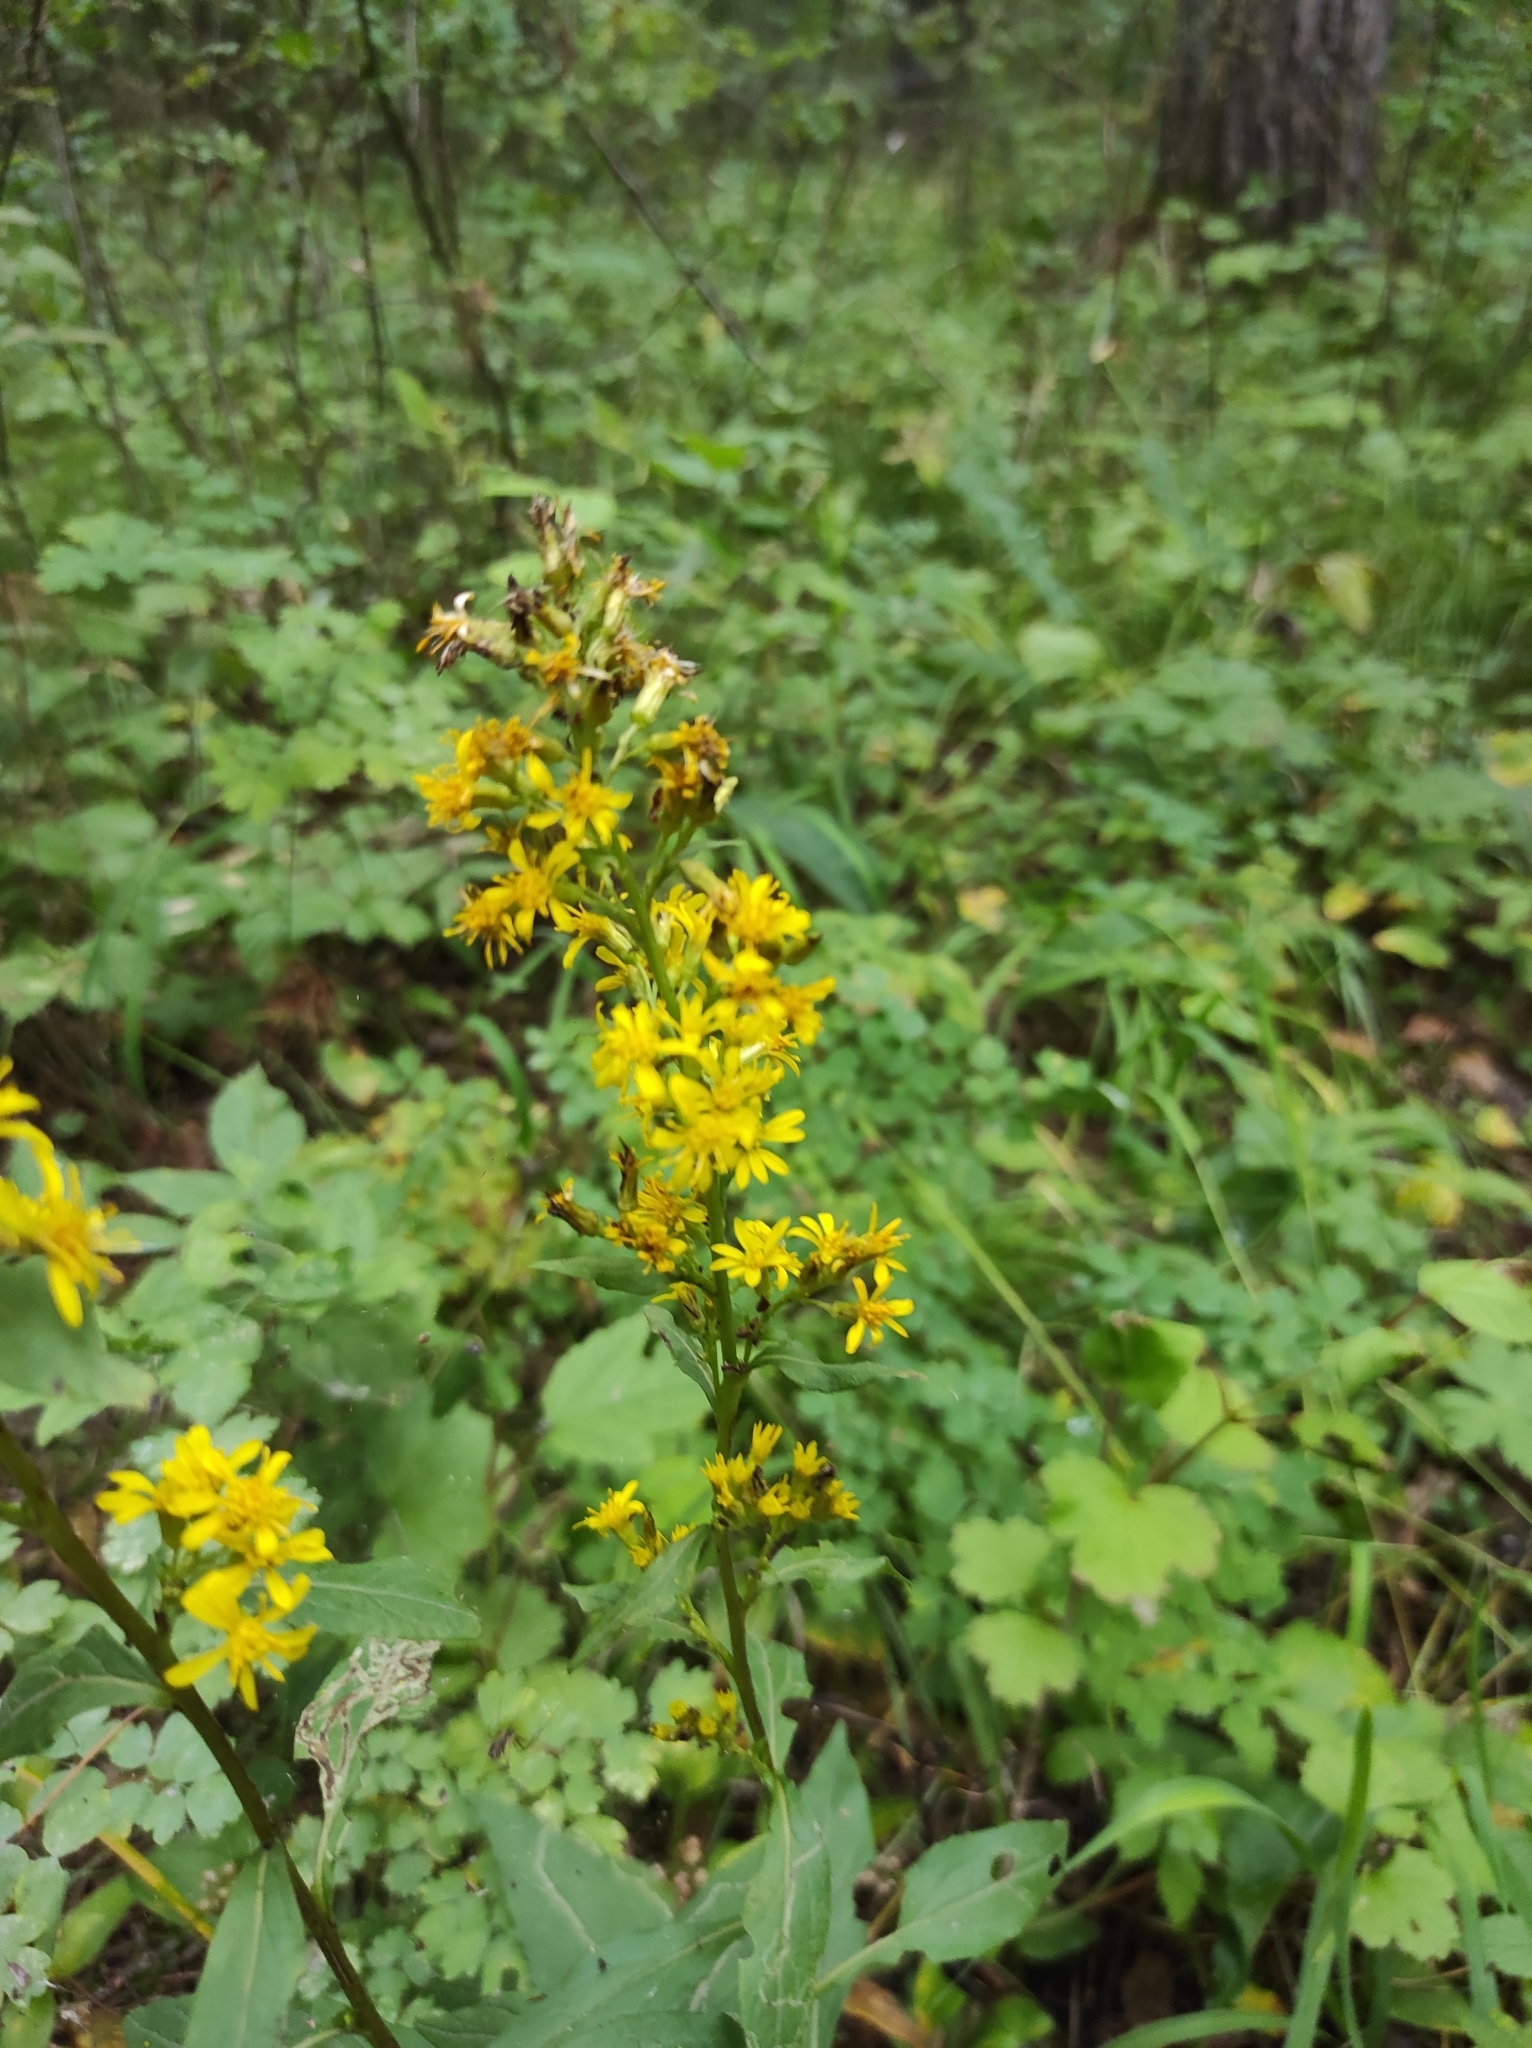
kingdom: Plantae
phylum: Tracheophyta
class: Magnoliopsida
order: Asterales
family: Asteraceae
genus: Solidago
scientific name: Solidago virgaurea
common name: Goldenrod
